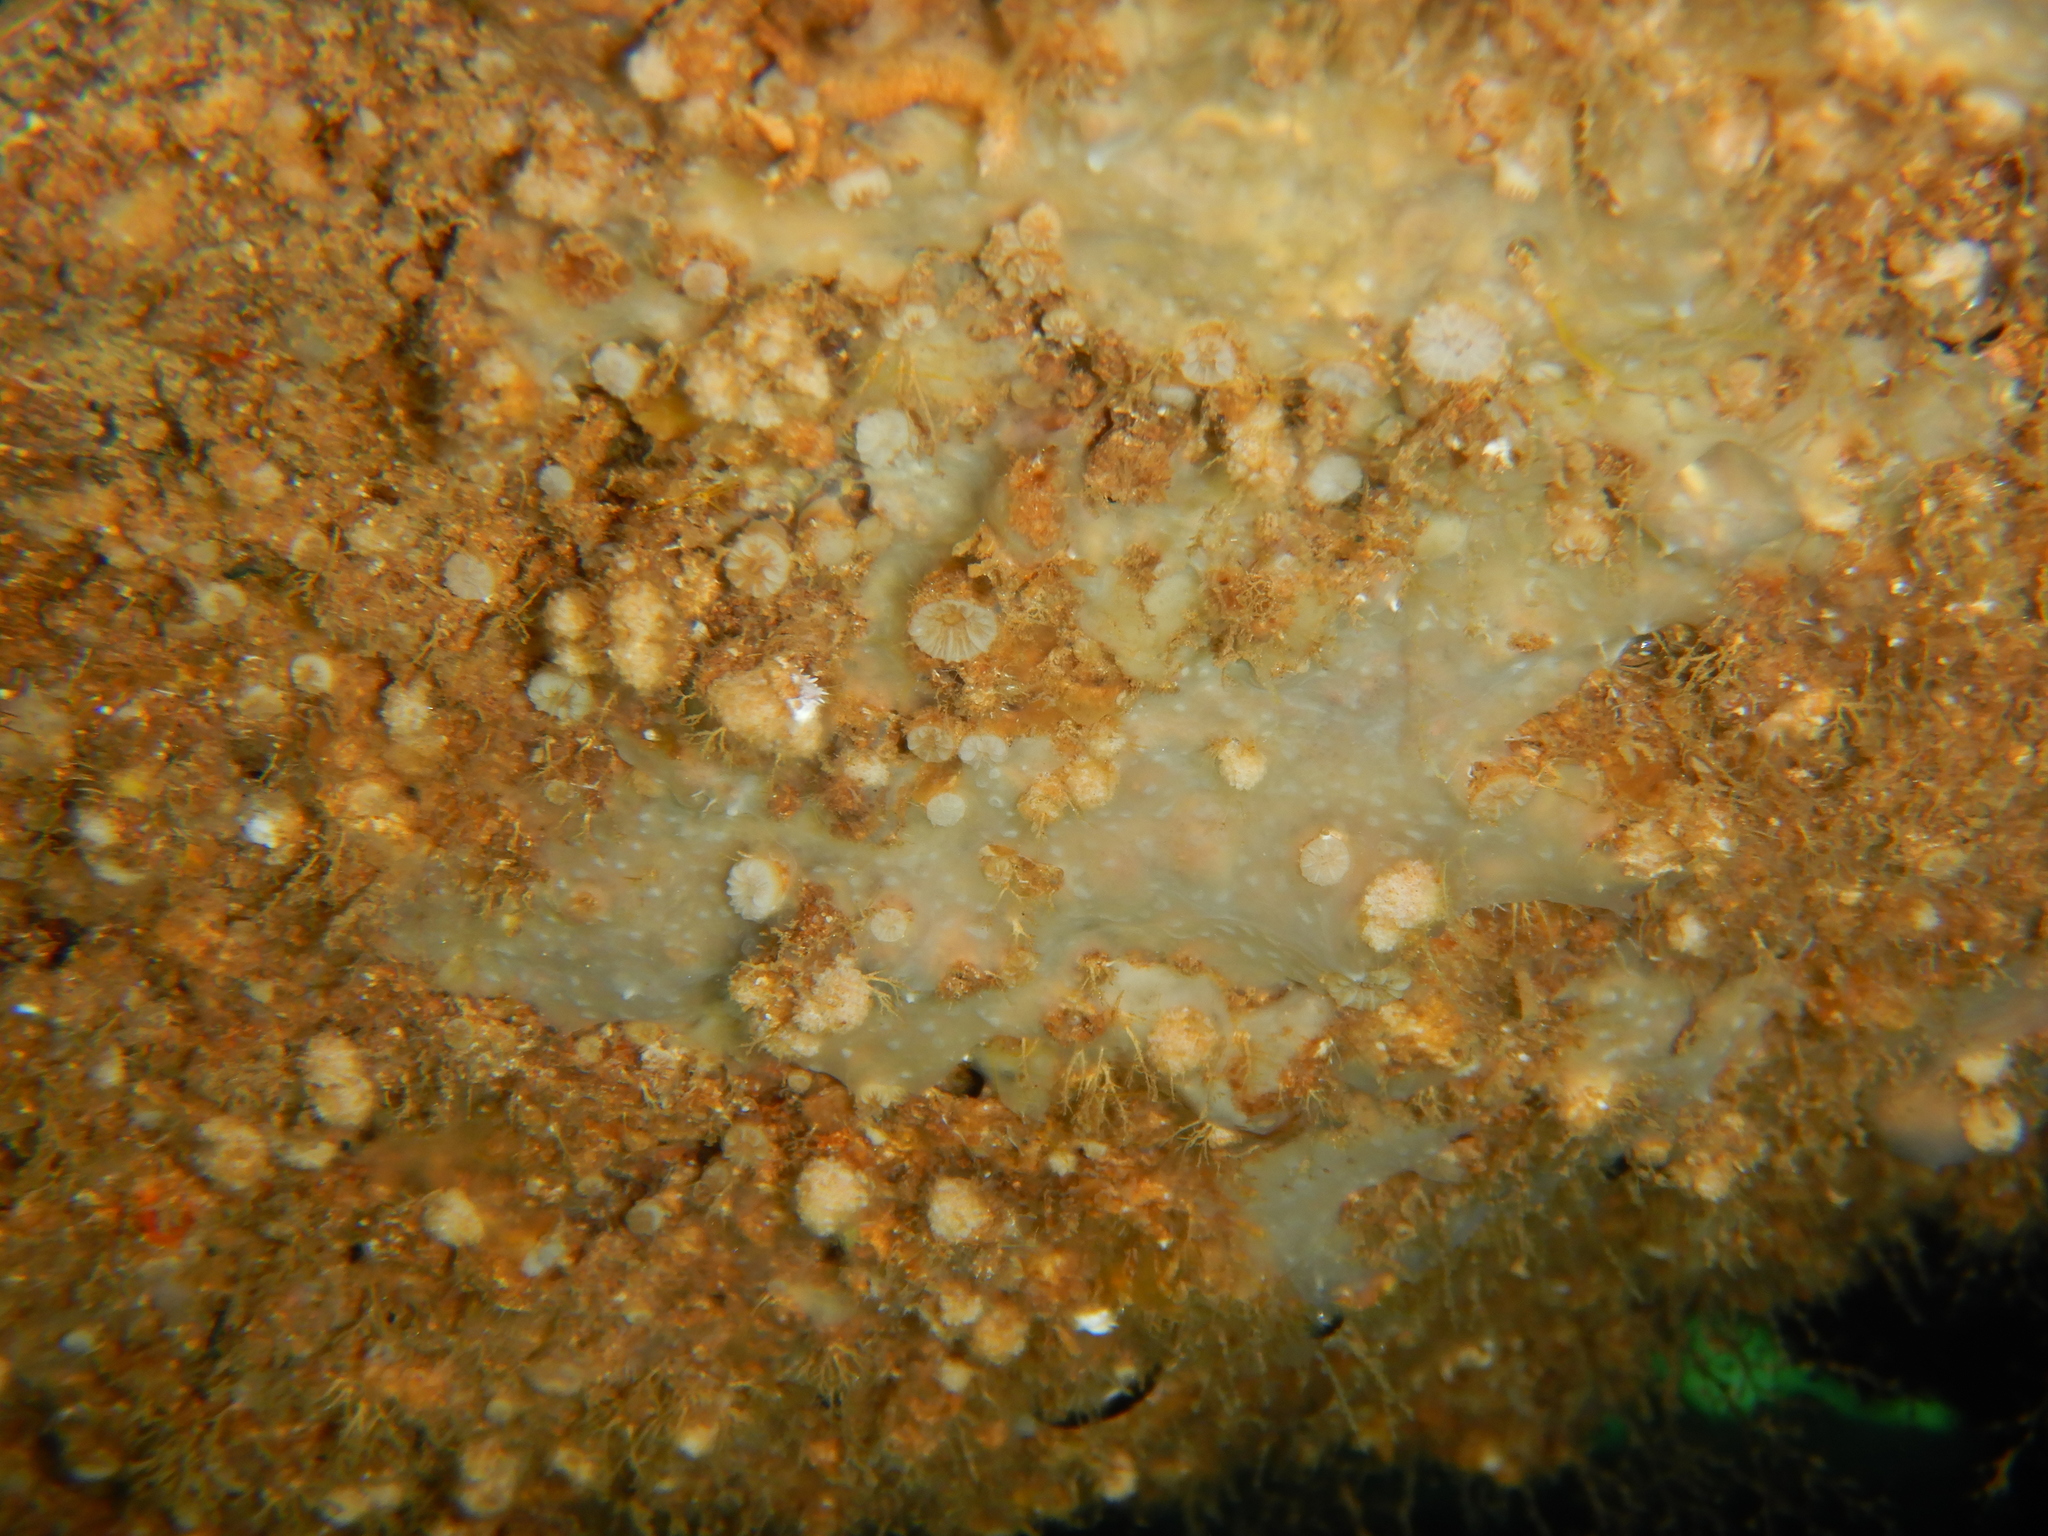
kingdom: Animalia
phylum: Cnidaria
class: Anthozoa
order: Scleractinia
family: Caryophylliidae
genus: Hoplangia
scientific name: Hoplangia durotrix
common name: Weymouth carpet coral
